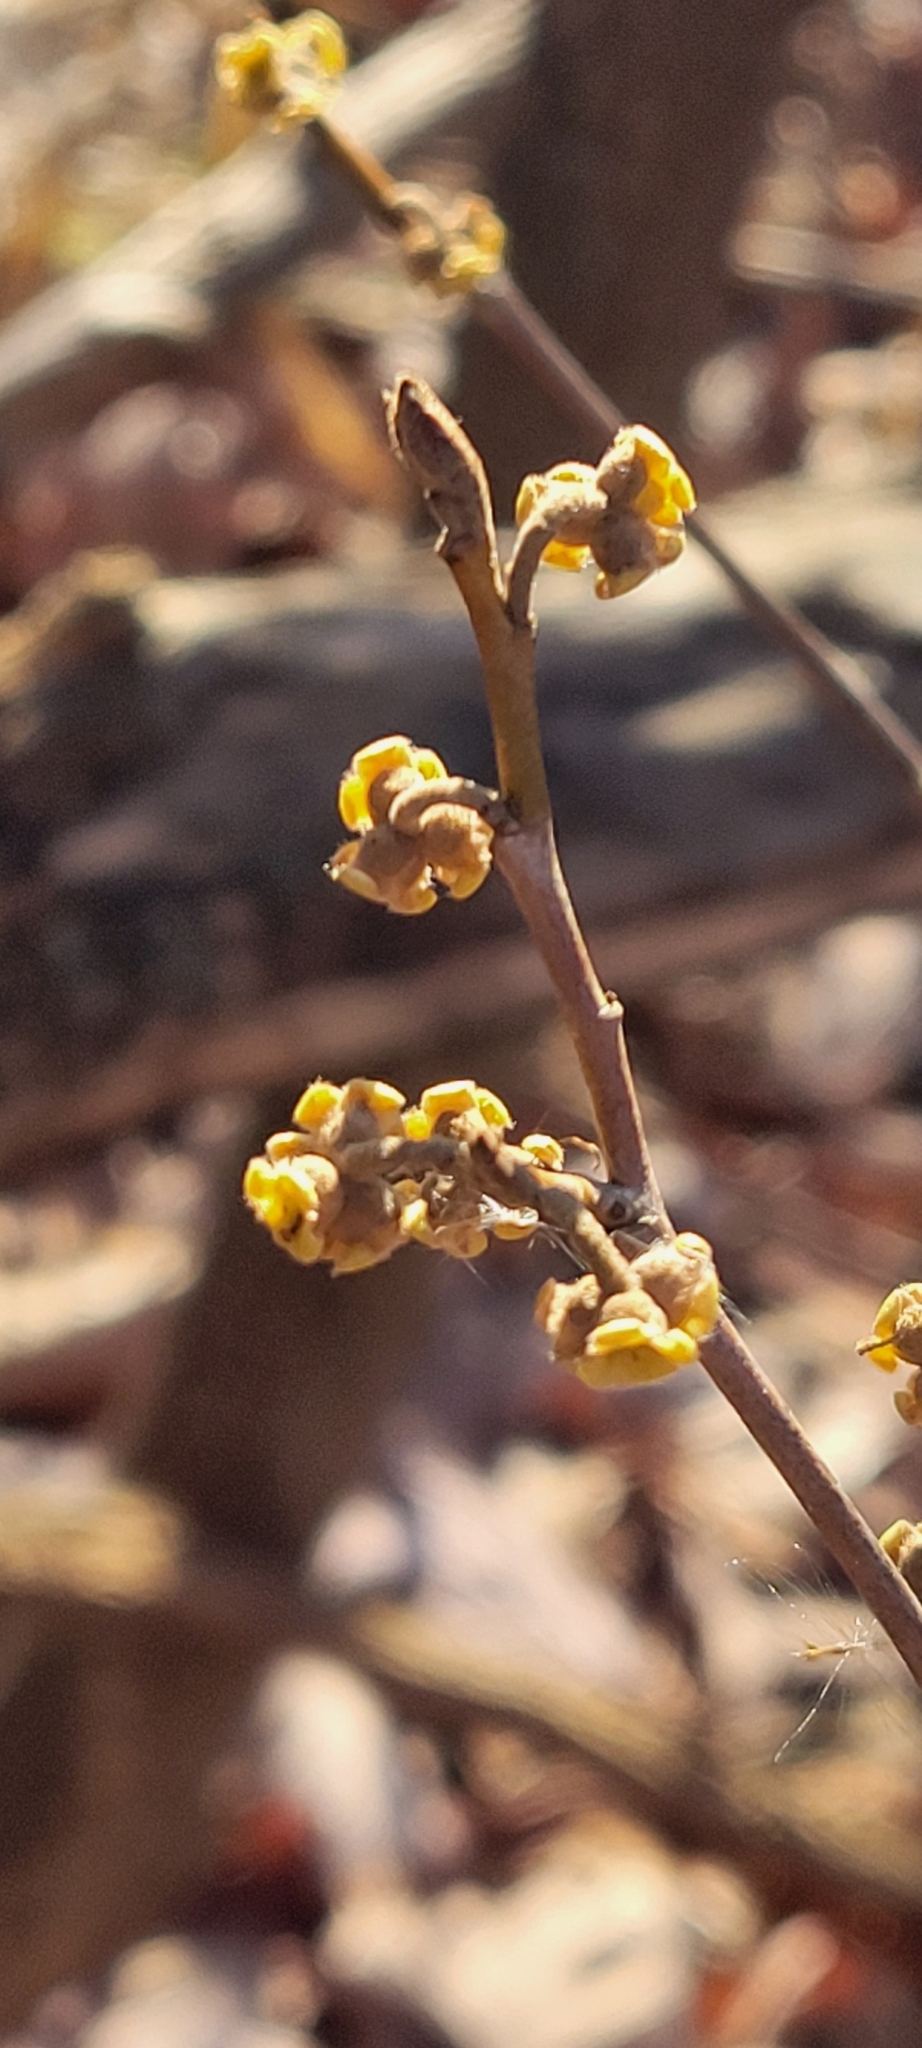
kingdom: Plantae
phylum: Tracheophyta
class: Magnoliopsida
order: Saxifragales
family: Hamamelidaceae
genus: Hamamelis
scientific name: Hamamelis virginiana
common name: Witch-hazel
